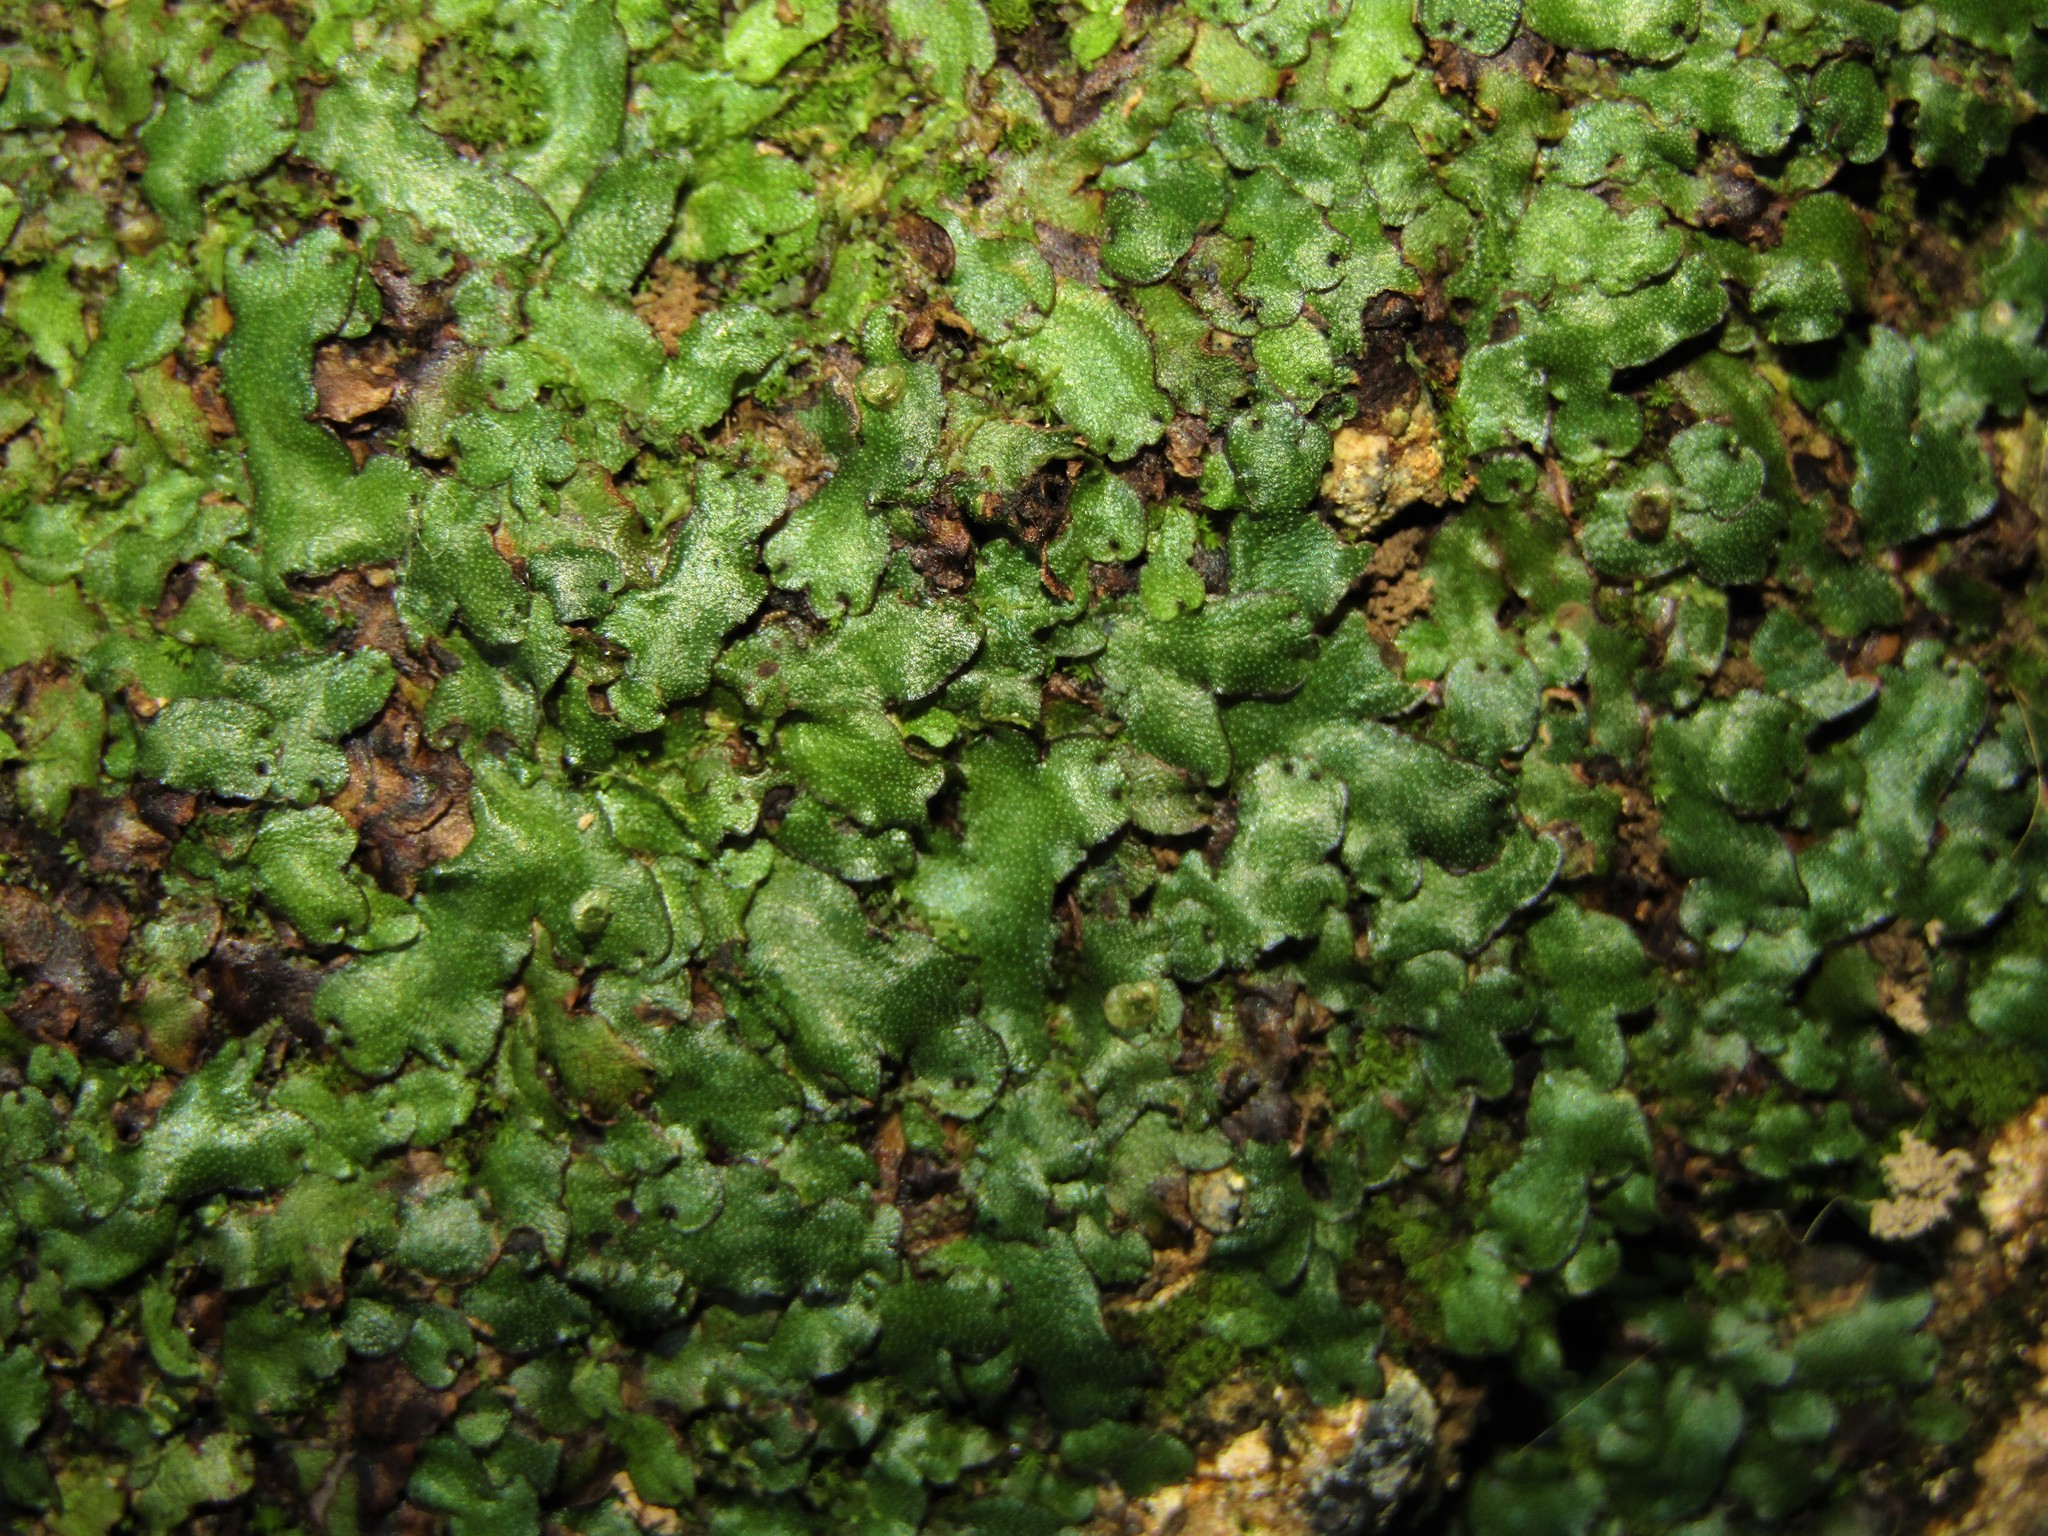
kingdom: Plantae
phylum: Marchantiophyta
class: Marchantiopsida
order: Marchantiales
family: Marchantiaceae
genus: Marchantia
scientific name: Marchantia
